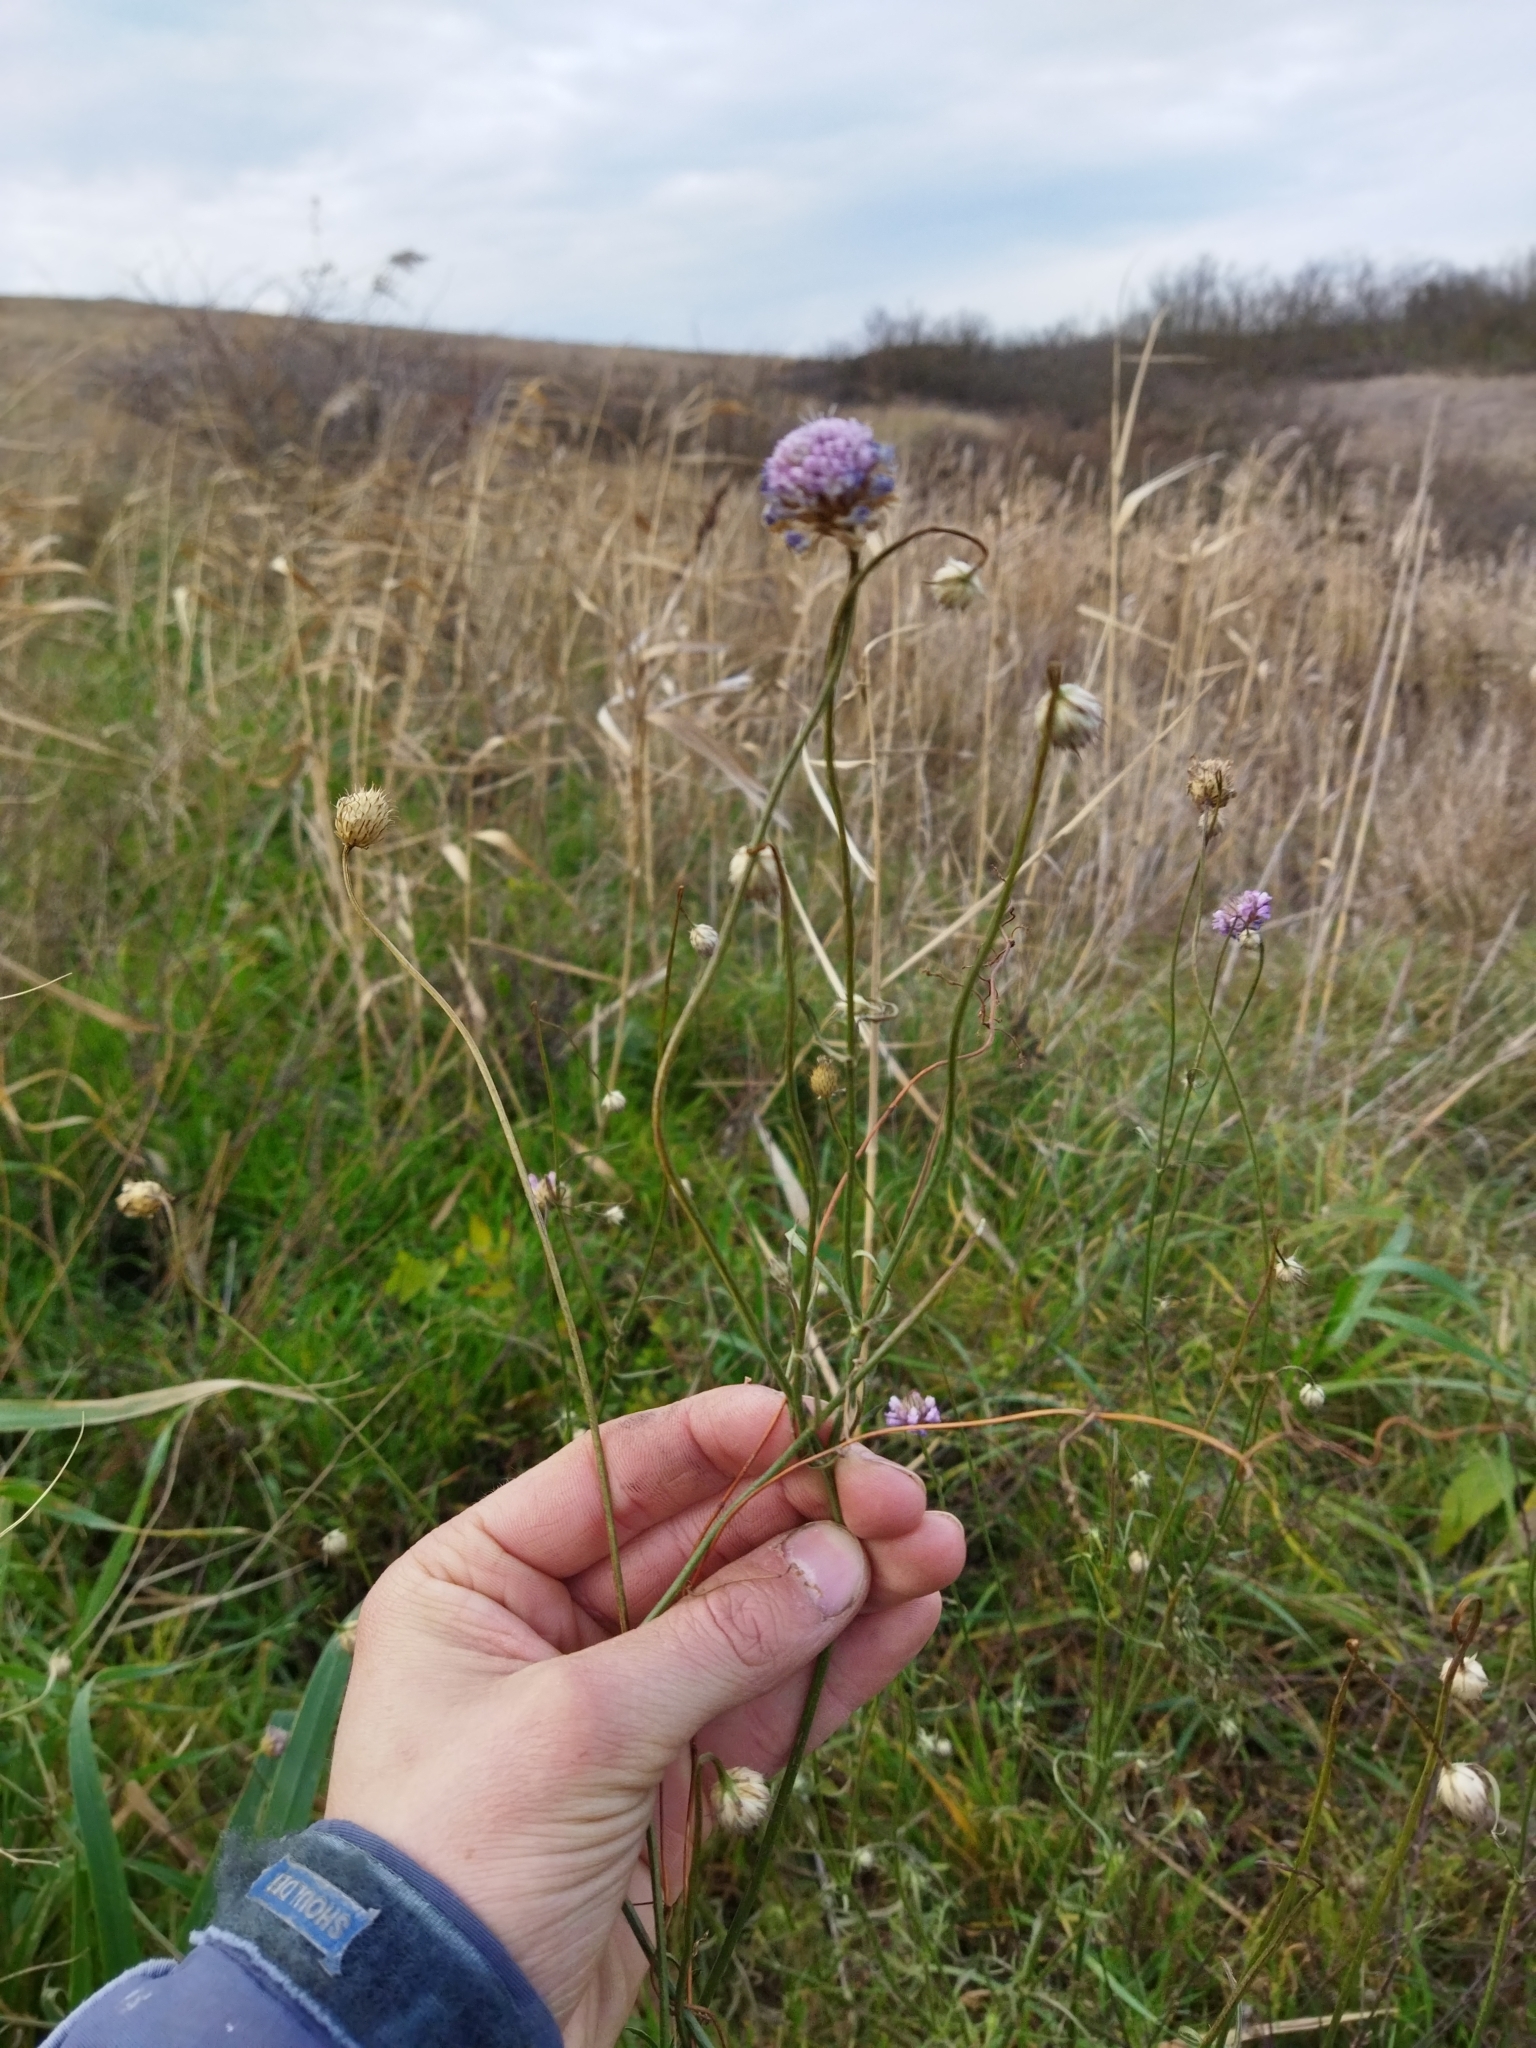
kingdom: Plantae
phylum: Tracheophyta
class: Magnoliopsida
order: Dipsacales
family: Caprifoliaceae
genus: Cephalaria
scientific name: Cephalaria transsylvanica
